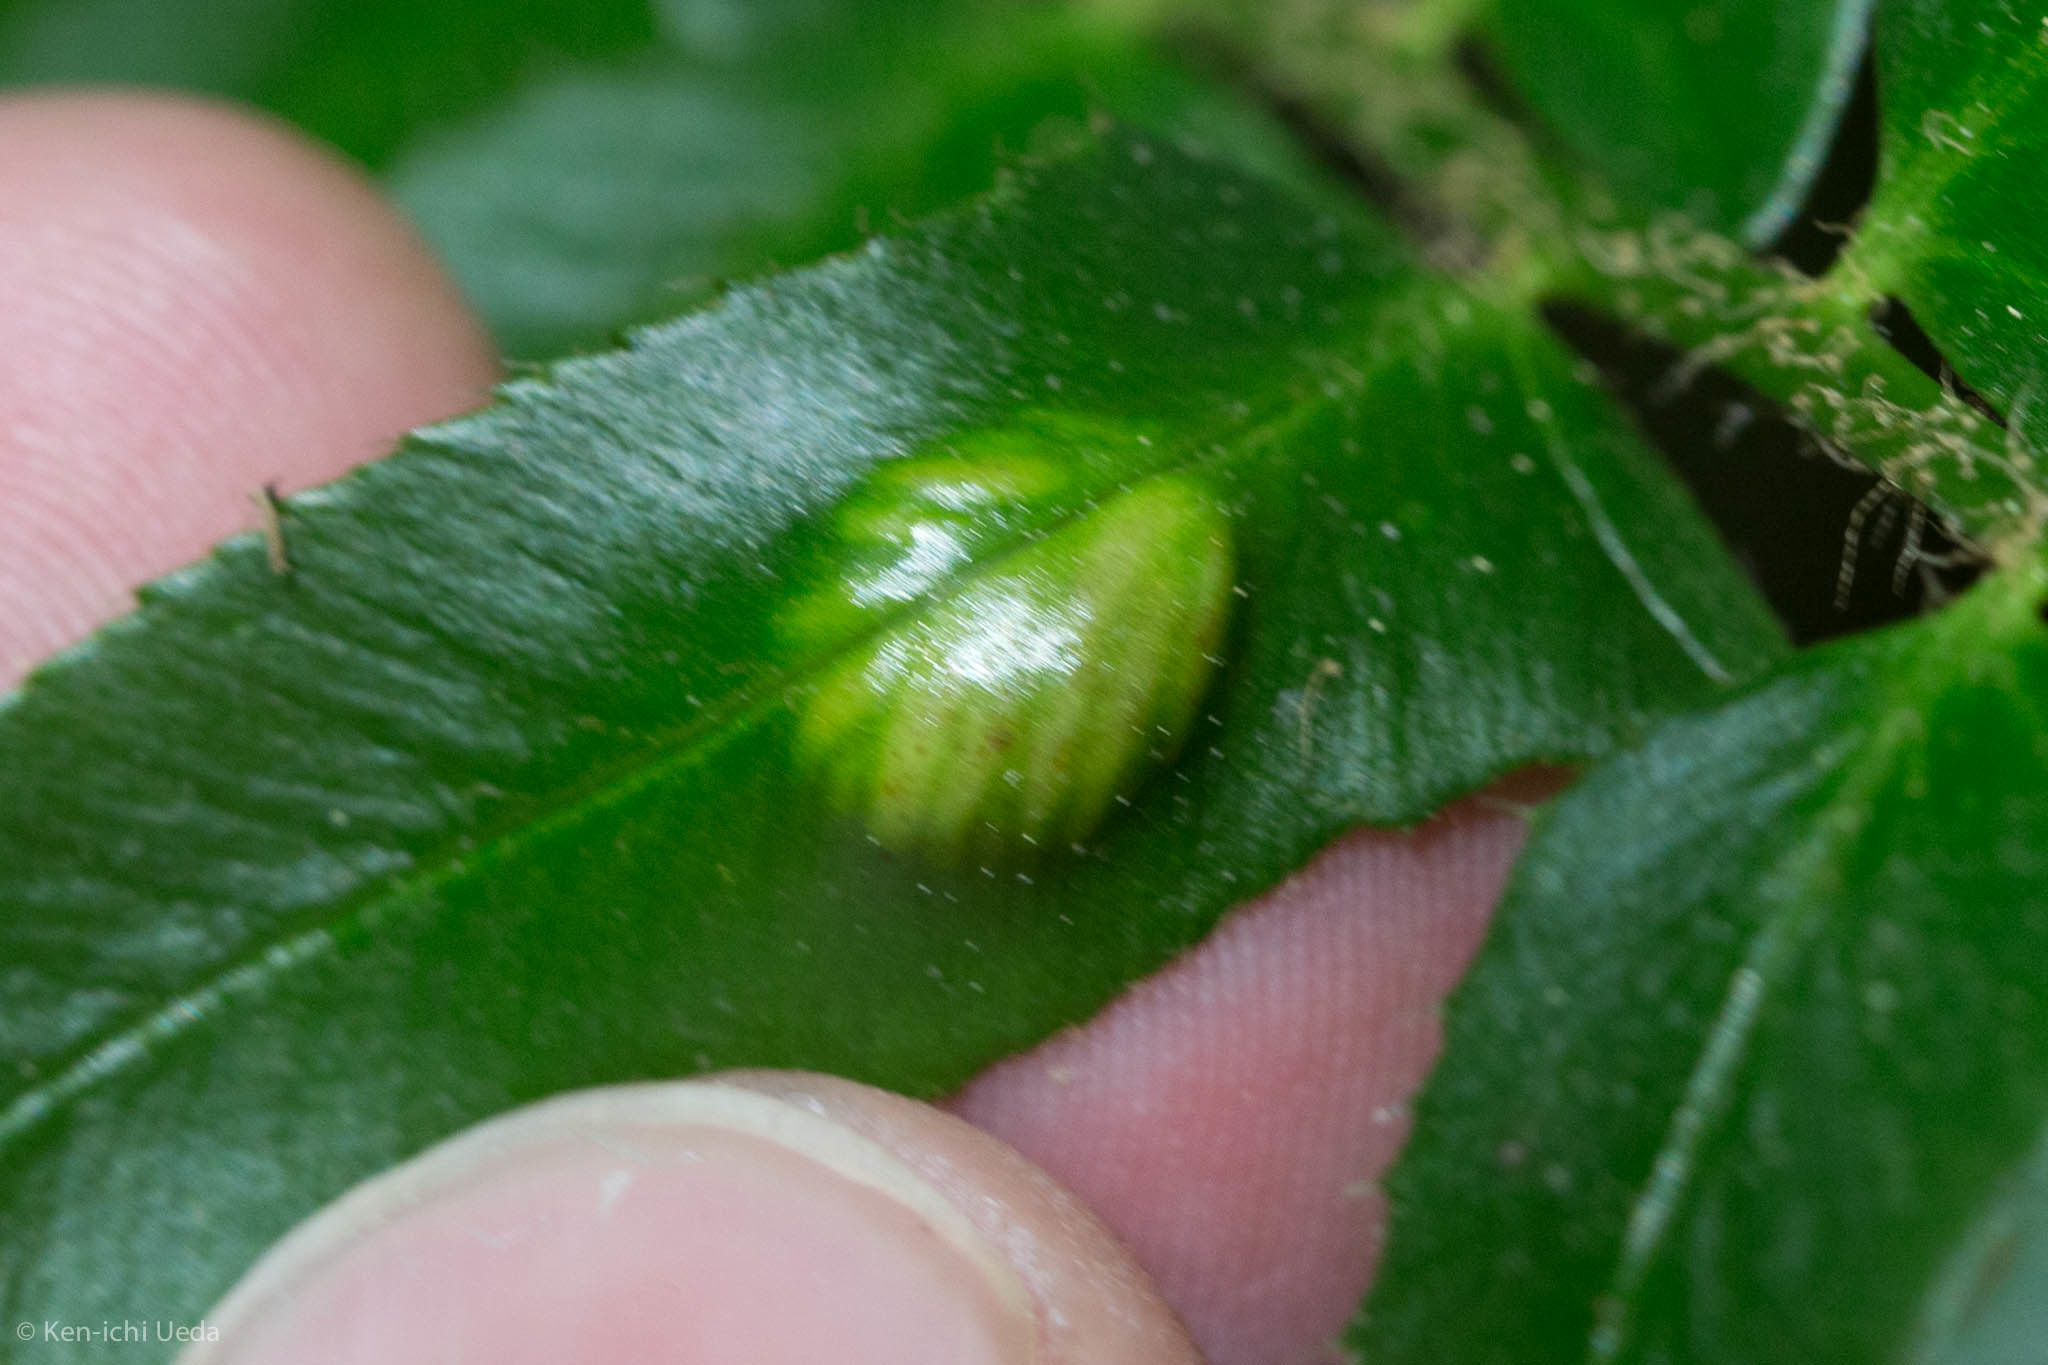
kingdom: Fungi
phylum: Ascomycota
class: Taphrinomycetes
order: Taphrinales
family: Taphrinaceae
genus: Taphrina
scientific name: Taphrina polystichi
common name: Christmas fern leaf curl
